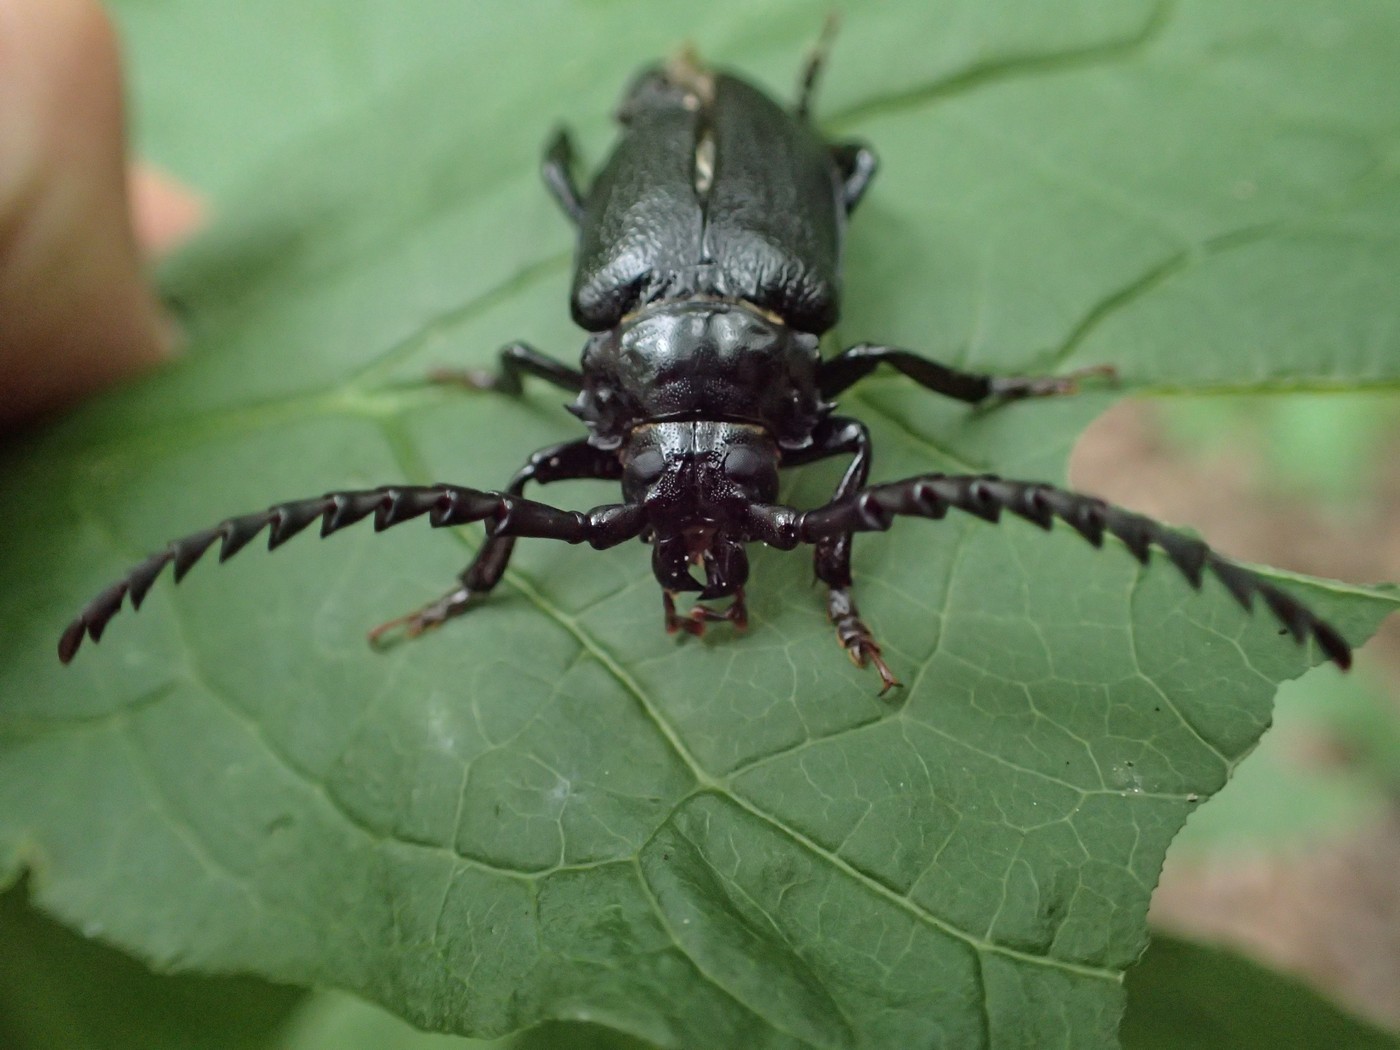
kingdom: Animalia
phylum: Arthropoda
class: Insecta
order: Coleoptera
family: Cerambycidae
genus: Prionus
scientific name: Prionus laticollis
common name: Broad necked prionus
